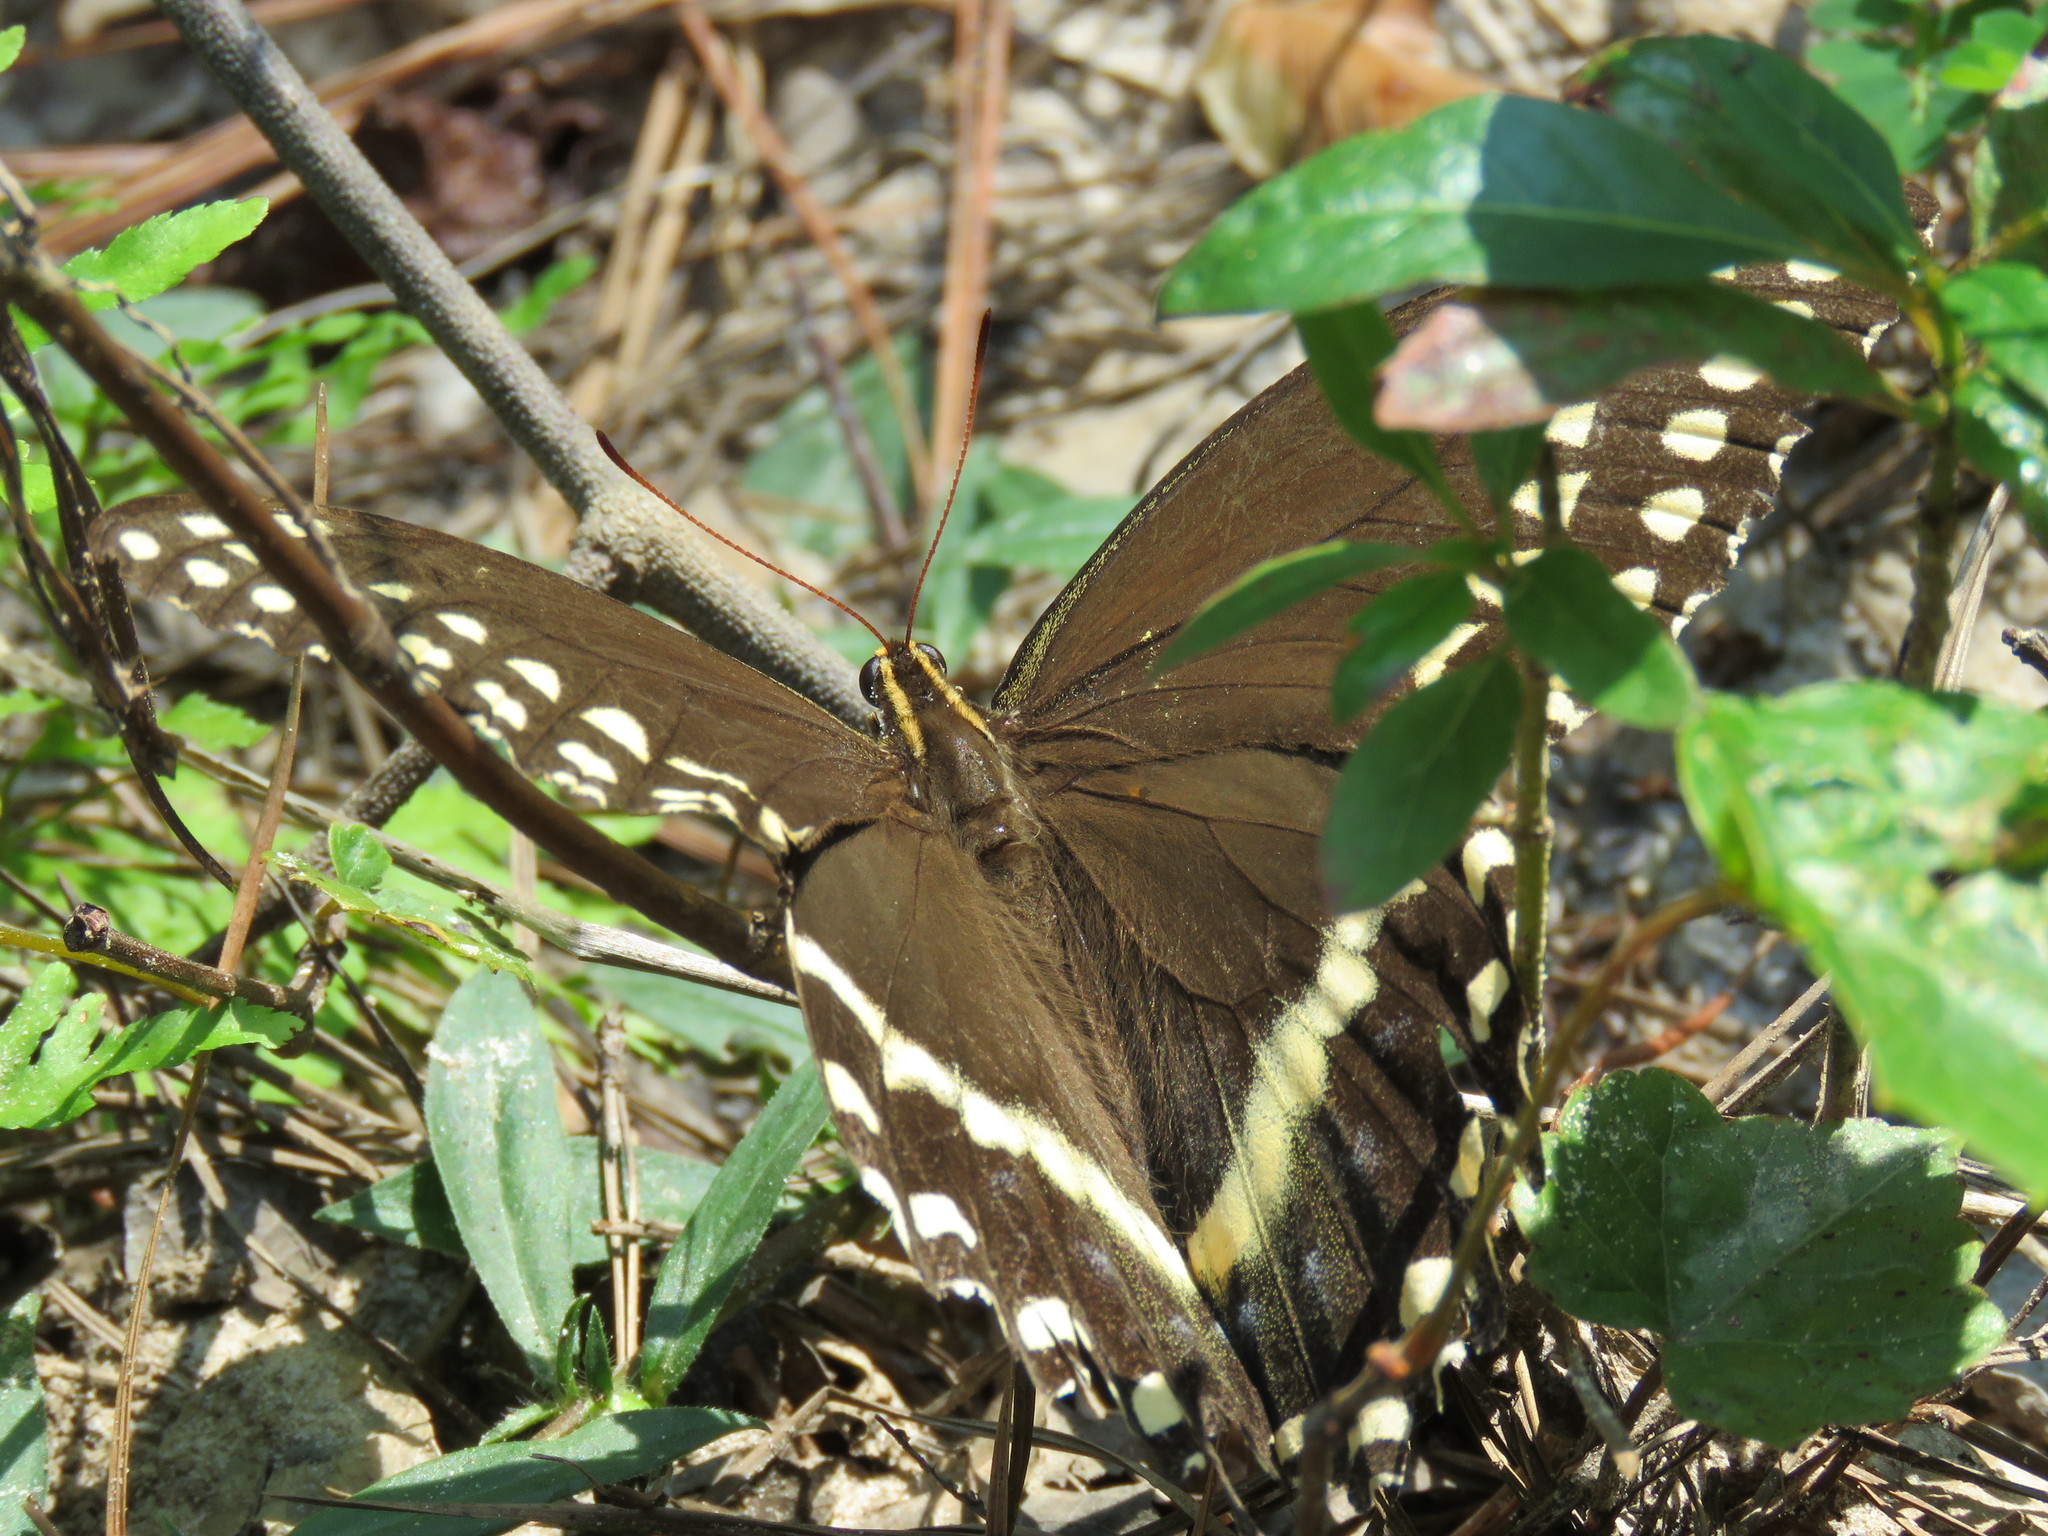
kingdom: Animalia
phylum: Arthropoda
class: Insecta
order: Lepidoptera
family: Papilionidae
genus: Papilio
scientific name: Papilio palamedes
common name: Palamedes swallowtail
